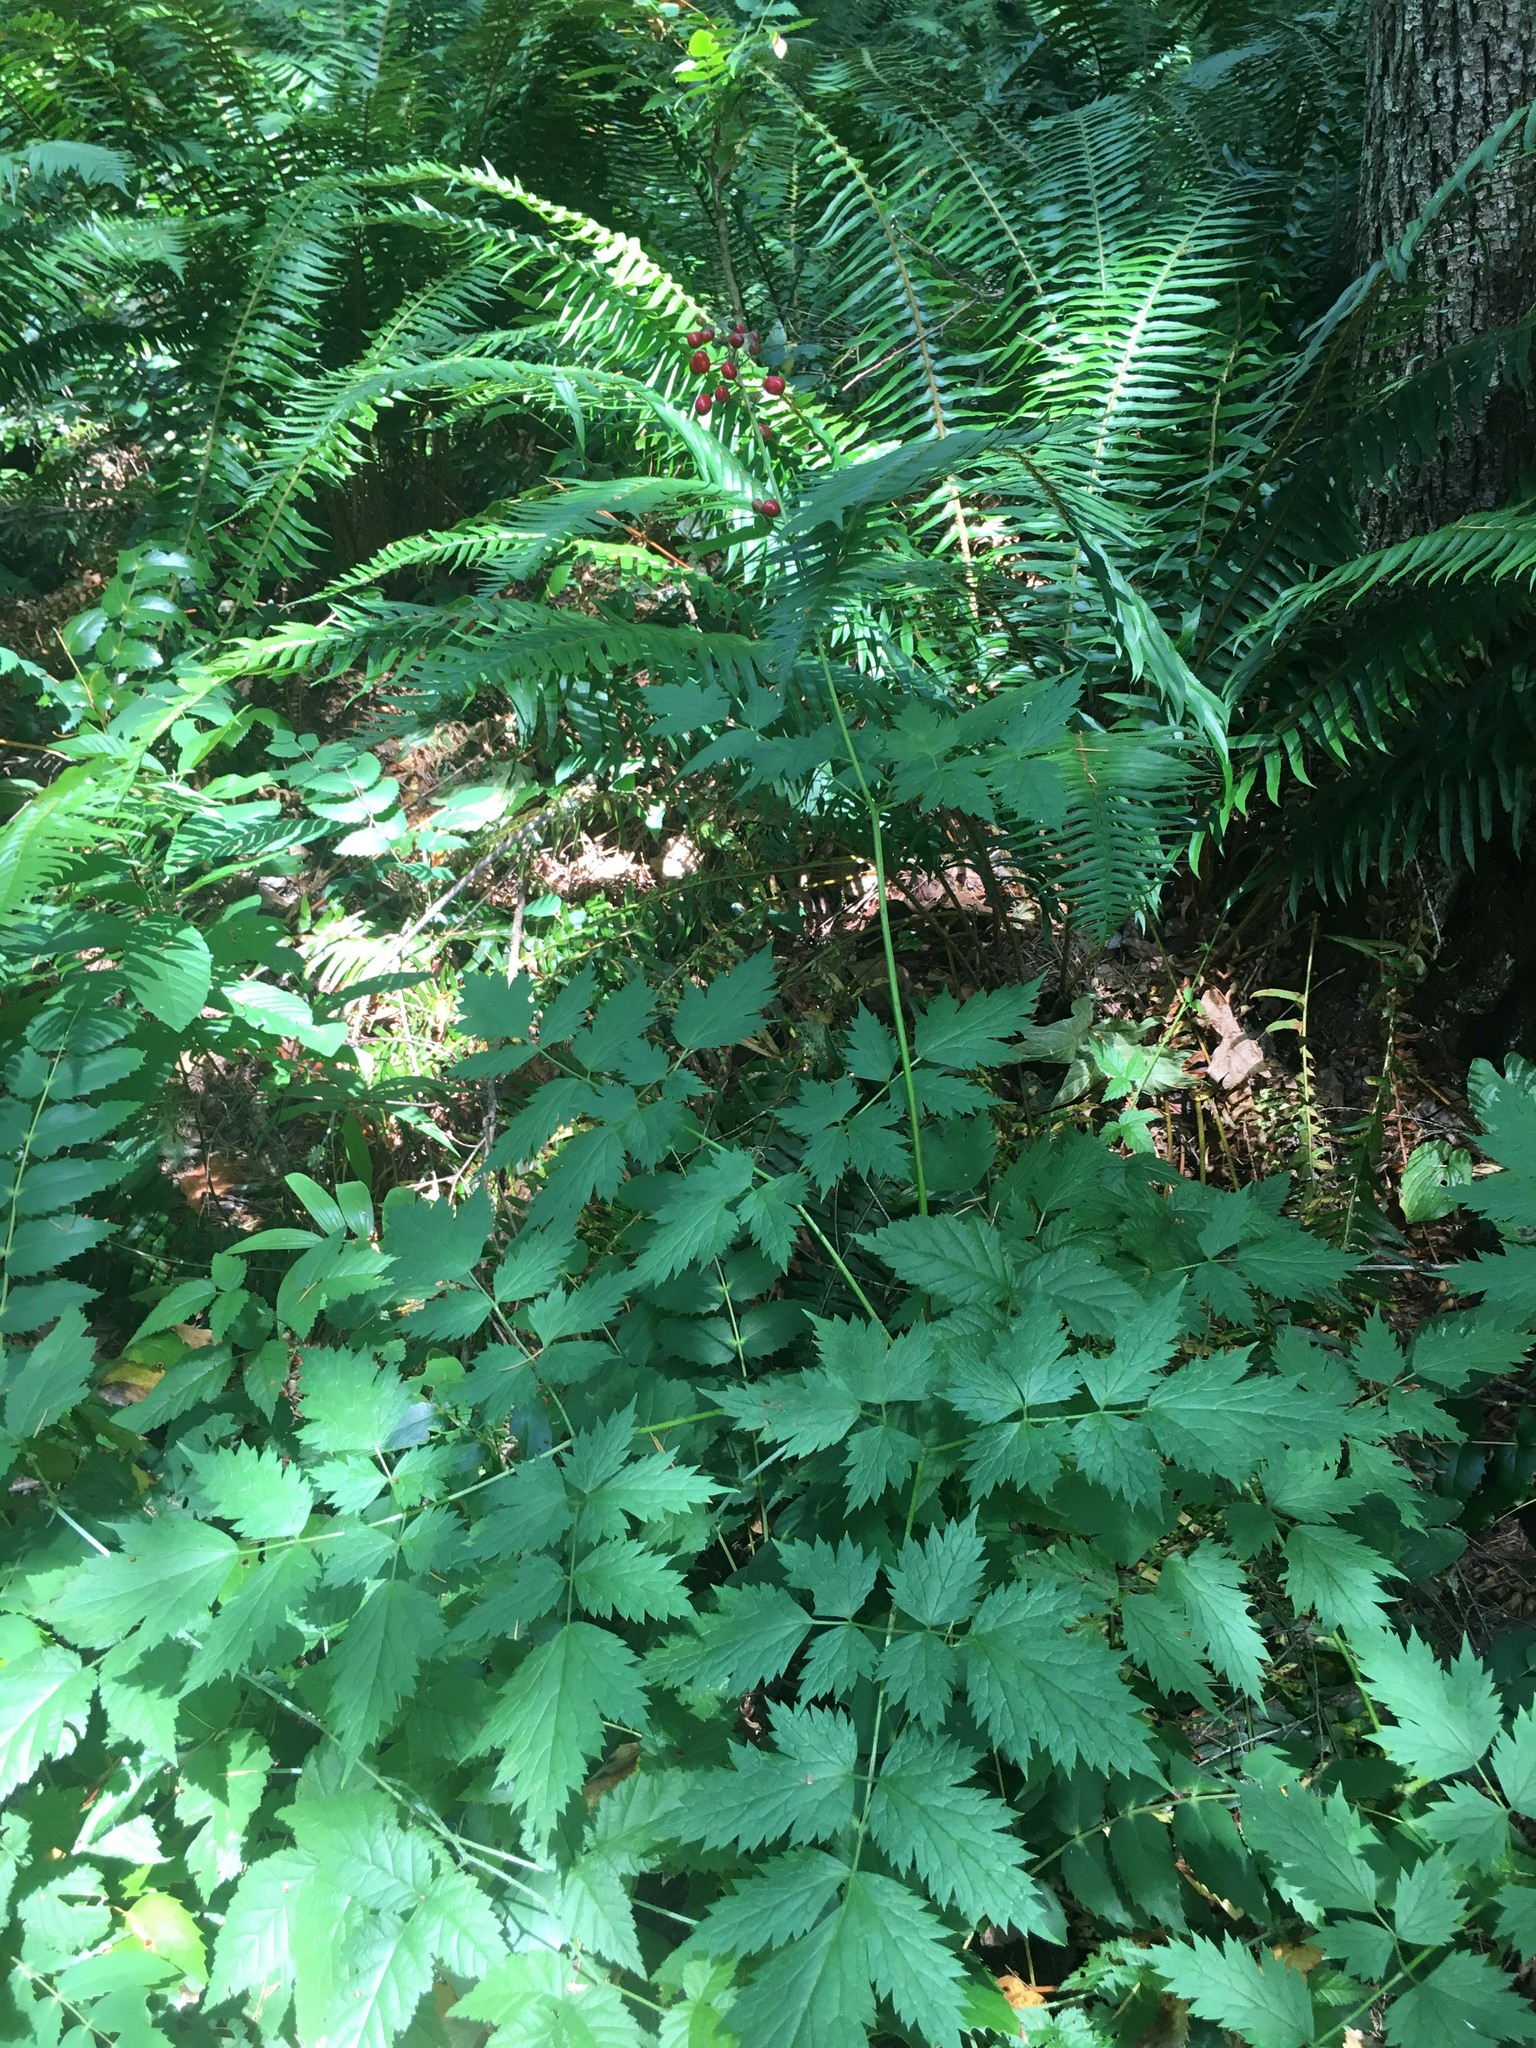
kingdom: Plantae
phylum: Tracheophyta
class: Magnoliopsida
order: Ranunculales
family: Ranunculaceae
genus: Actaea
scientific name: Actaea rubra
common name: Red baneberry
